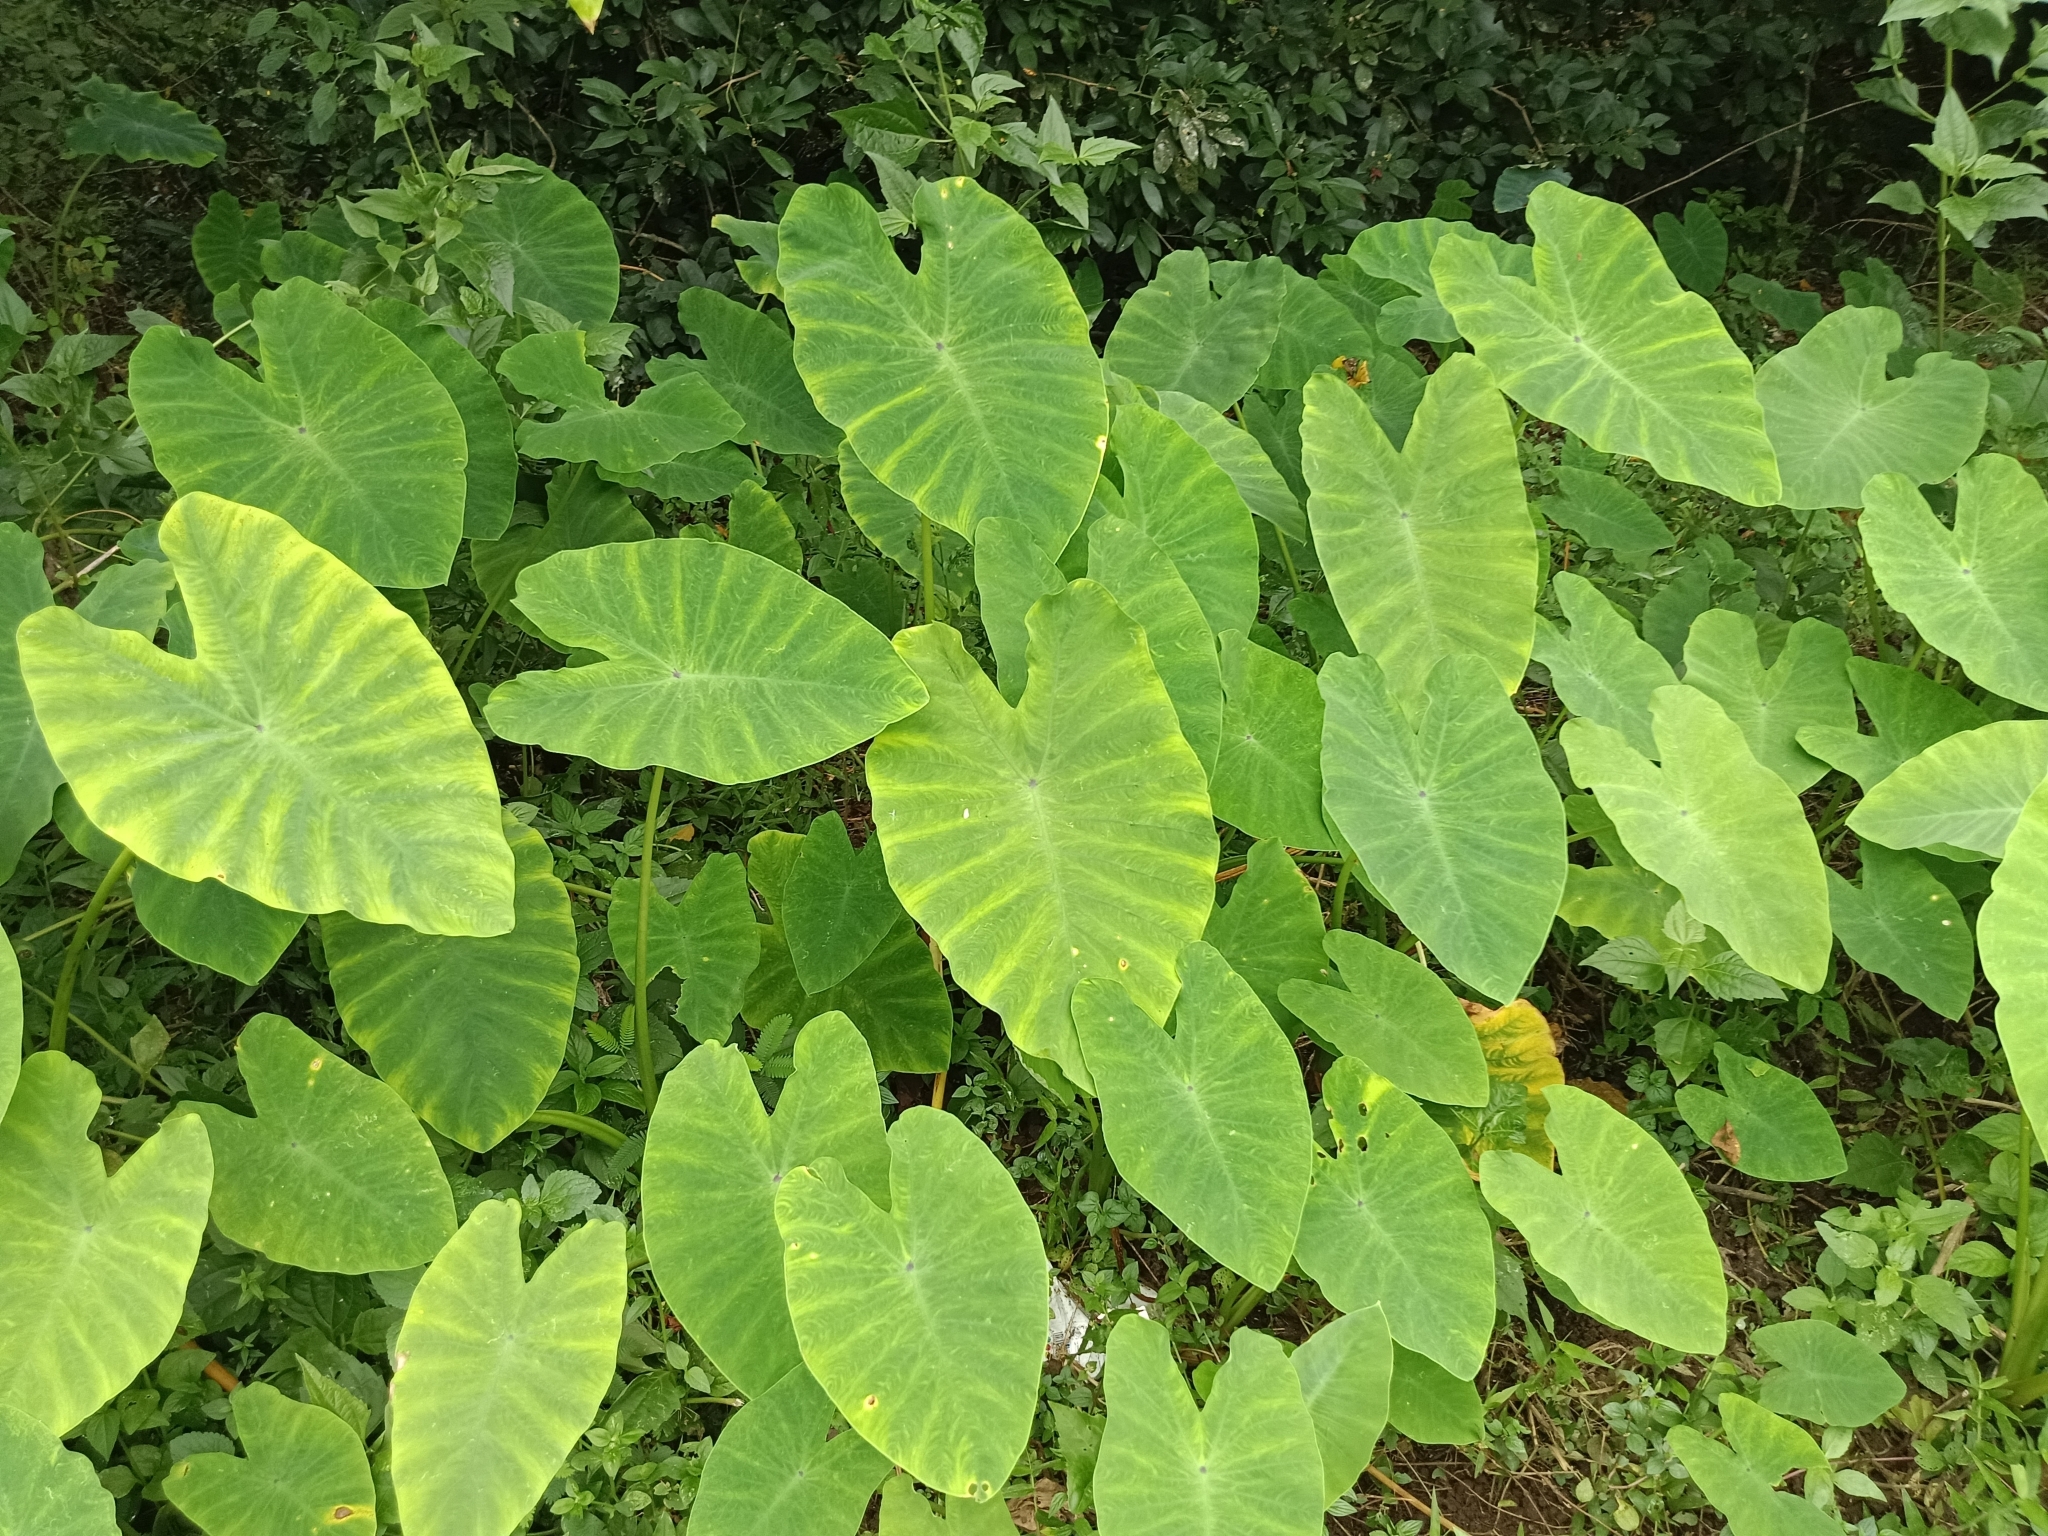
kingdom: Plantae
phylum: Tracheophyta
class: Liliopsida
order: Alismatales
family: Araceae
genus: Colocasia
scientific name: Colocasia esculenta
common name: Taro
